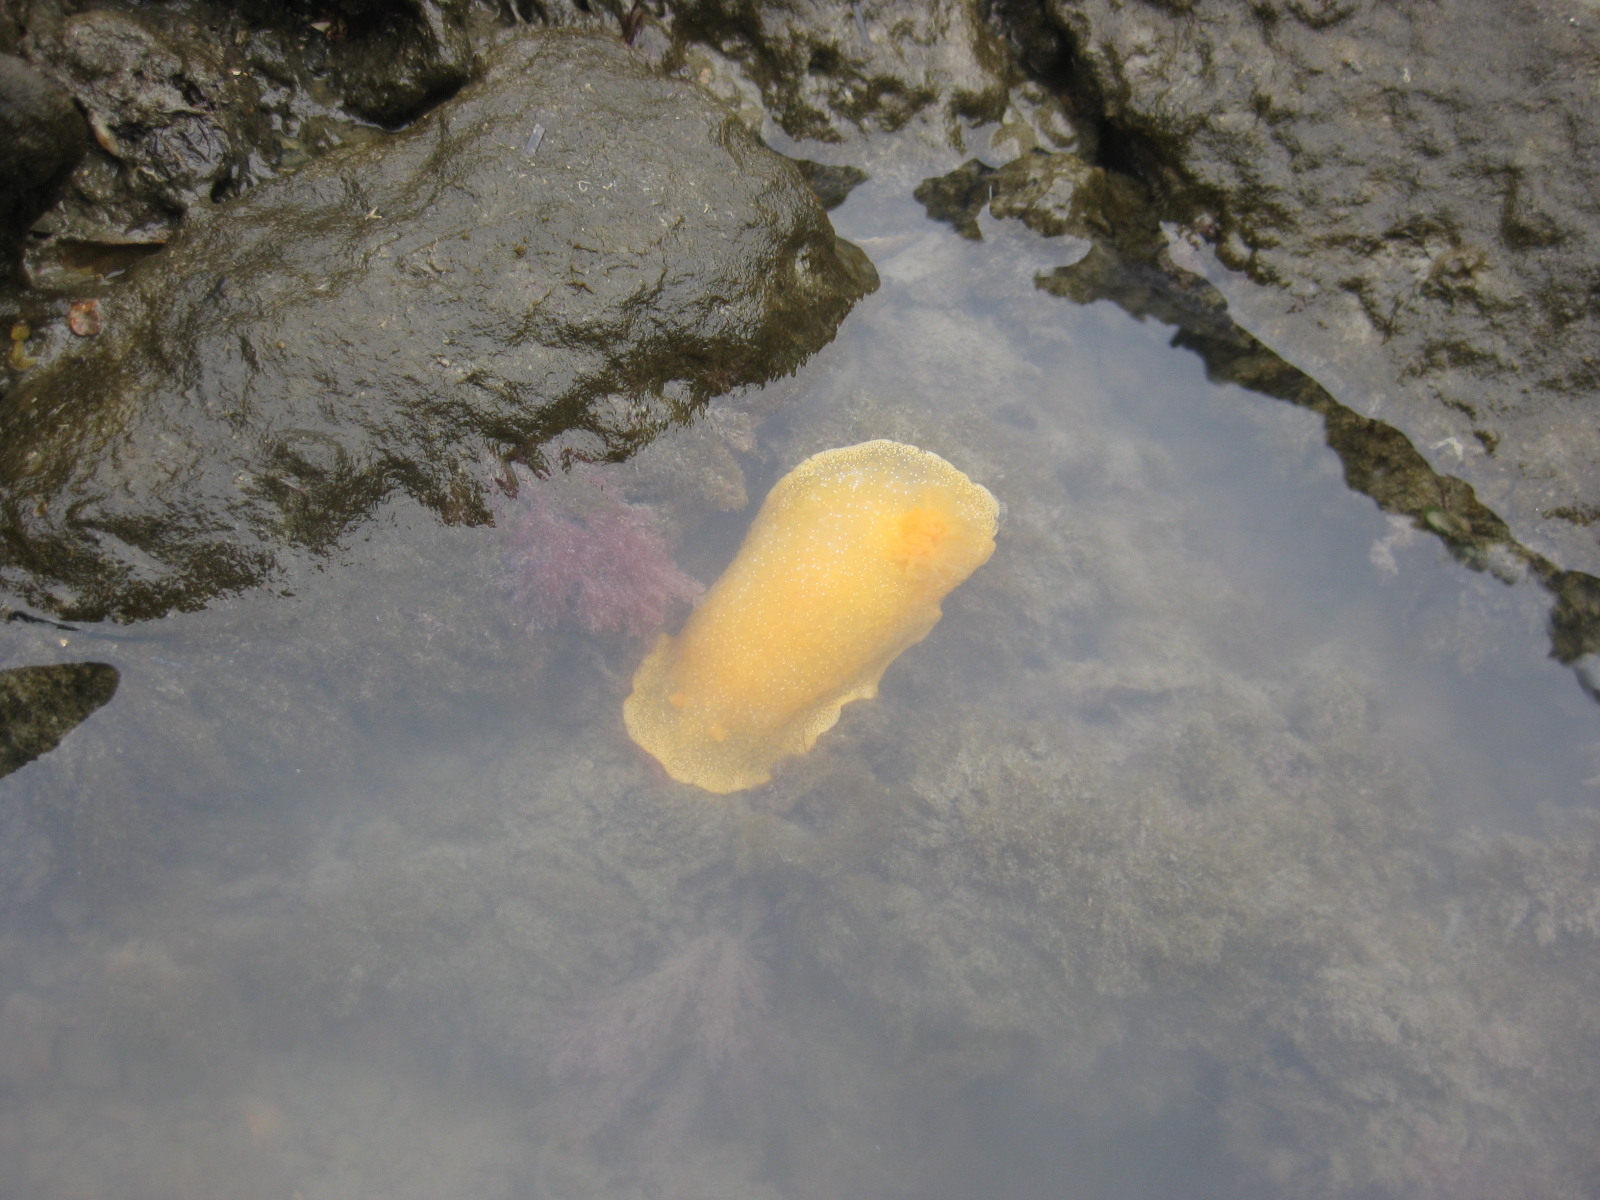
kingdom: Animalia
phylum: Mollusca
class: Gastropoda
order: Nudibranchia
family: Dendrodorididae
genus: Dendrodoris
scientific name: Dendrodoris citrina
